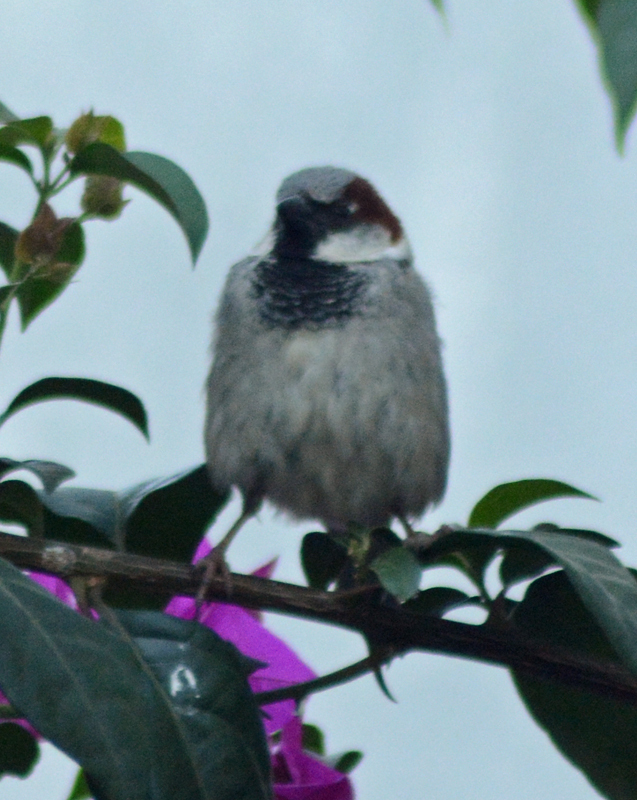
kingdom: Animalia
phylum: Chordata
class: Aves
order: Passeriformes
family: Passeridae
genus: Passer
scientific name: Passer domesticus
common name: House sparrow
